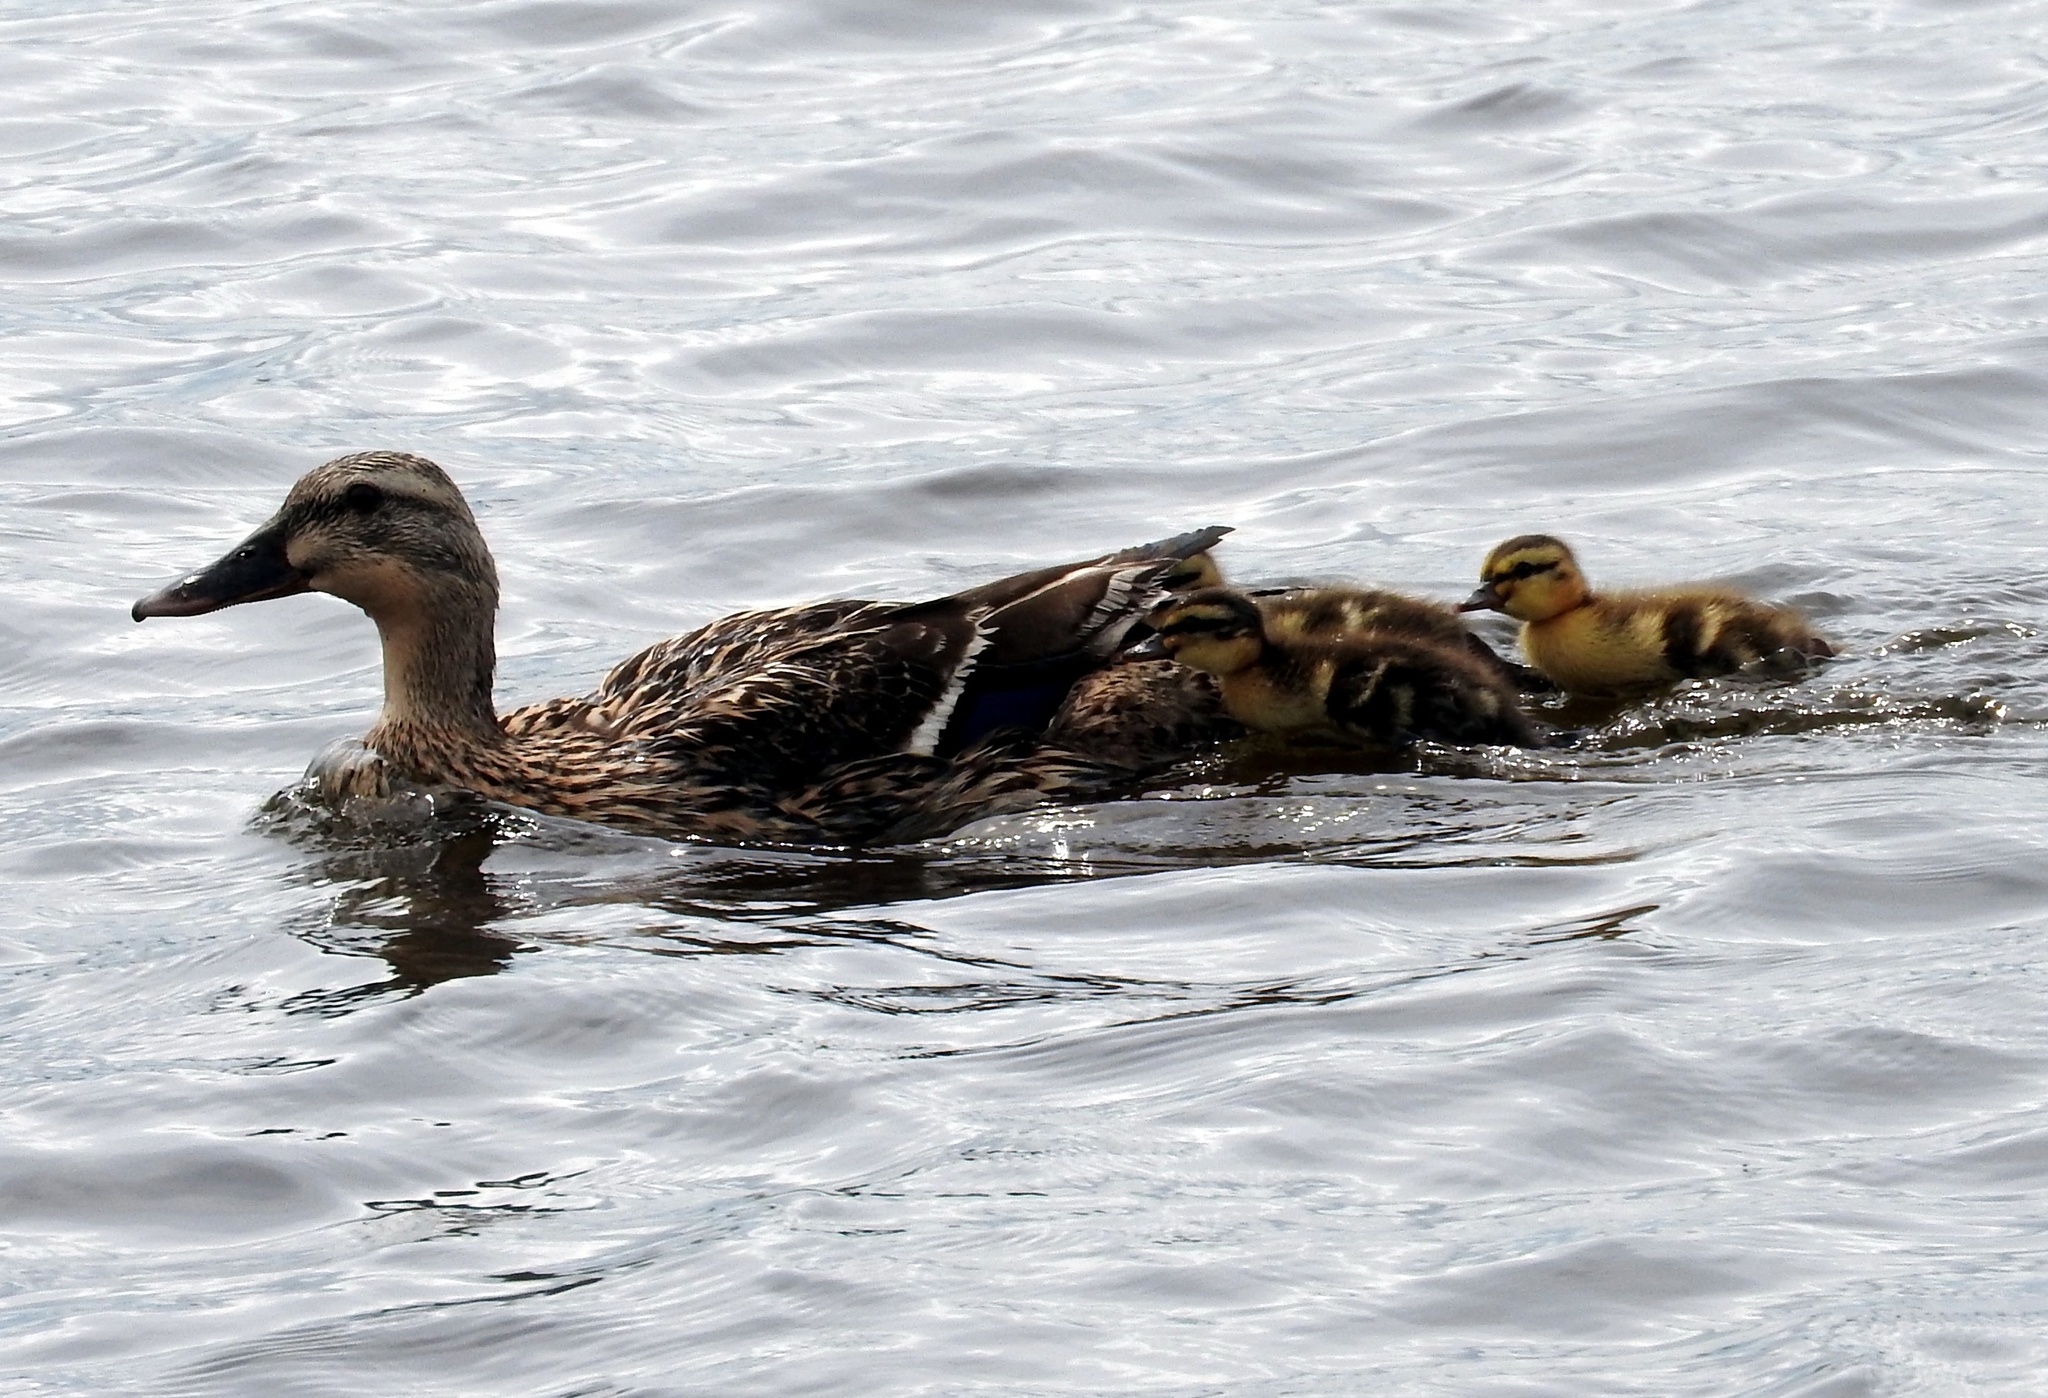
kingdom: Animalia
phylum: Chordata
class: Aves
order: Anseriformes
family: Anatidae
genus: Anas
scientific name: Anas platyrhynchos
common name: Mallard
